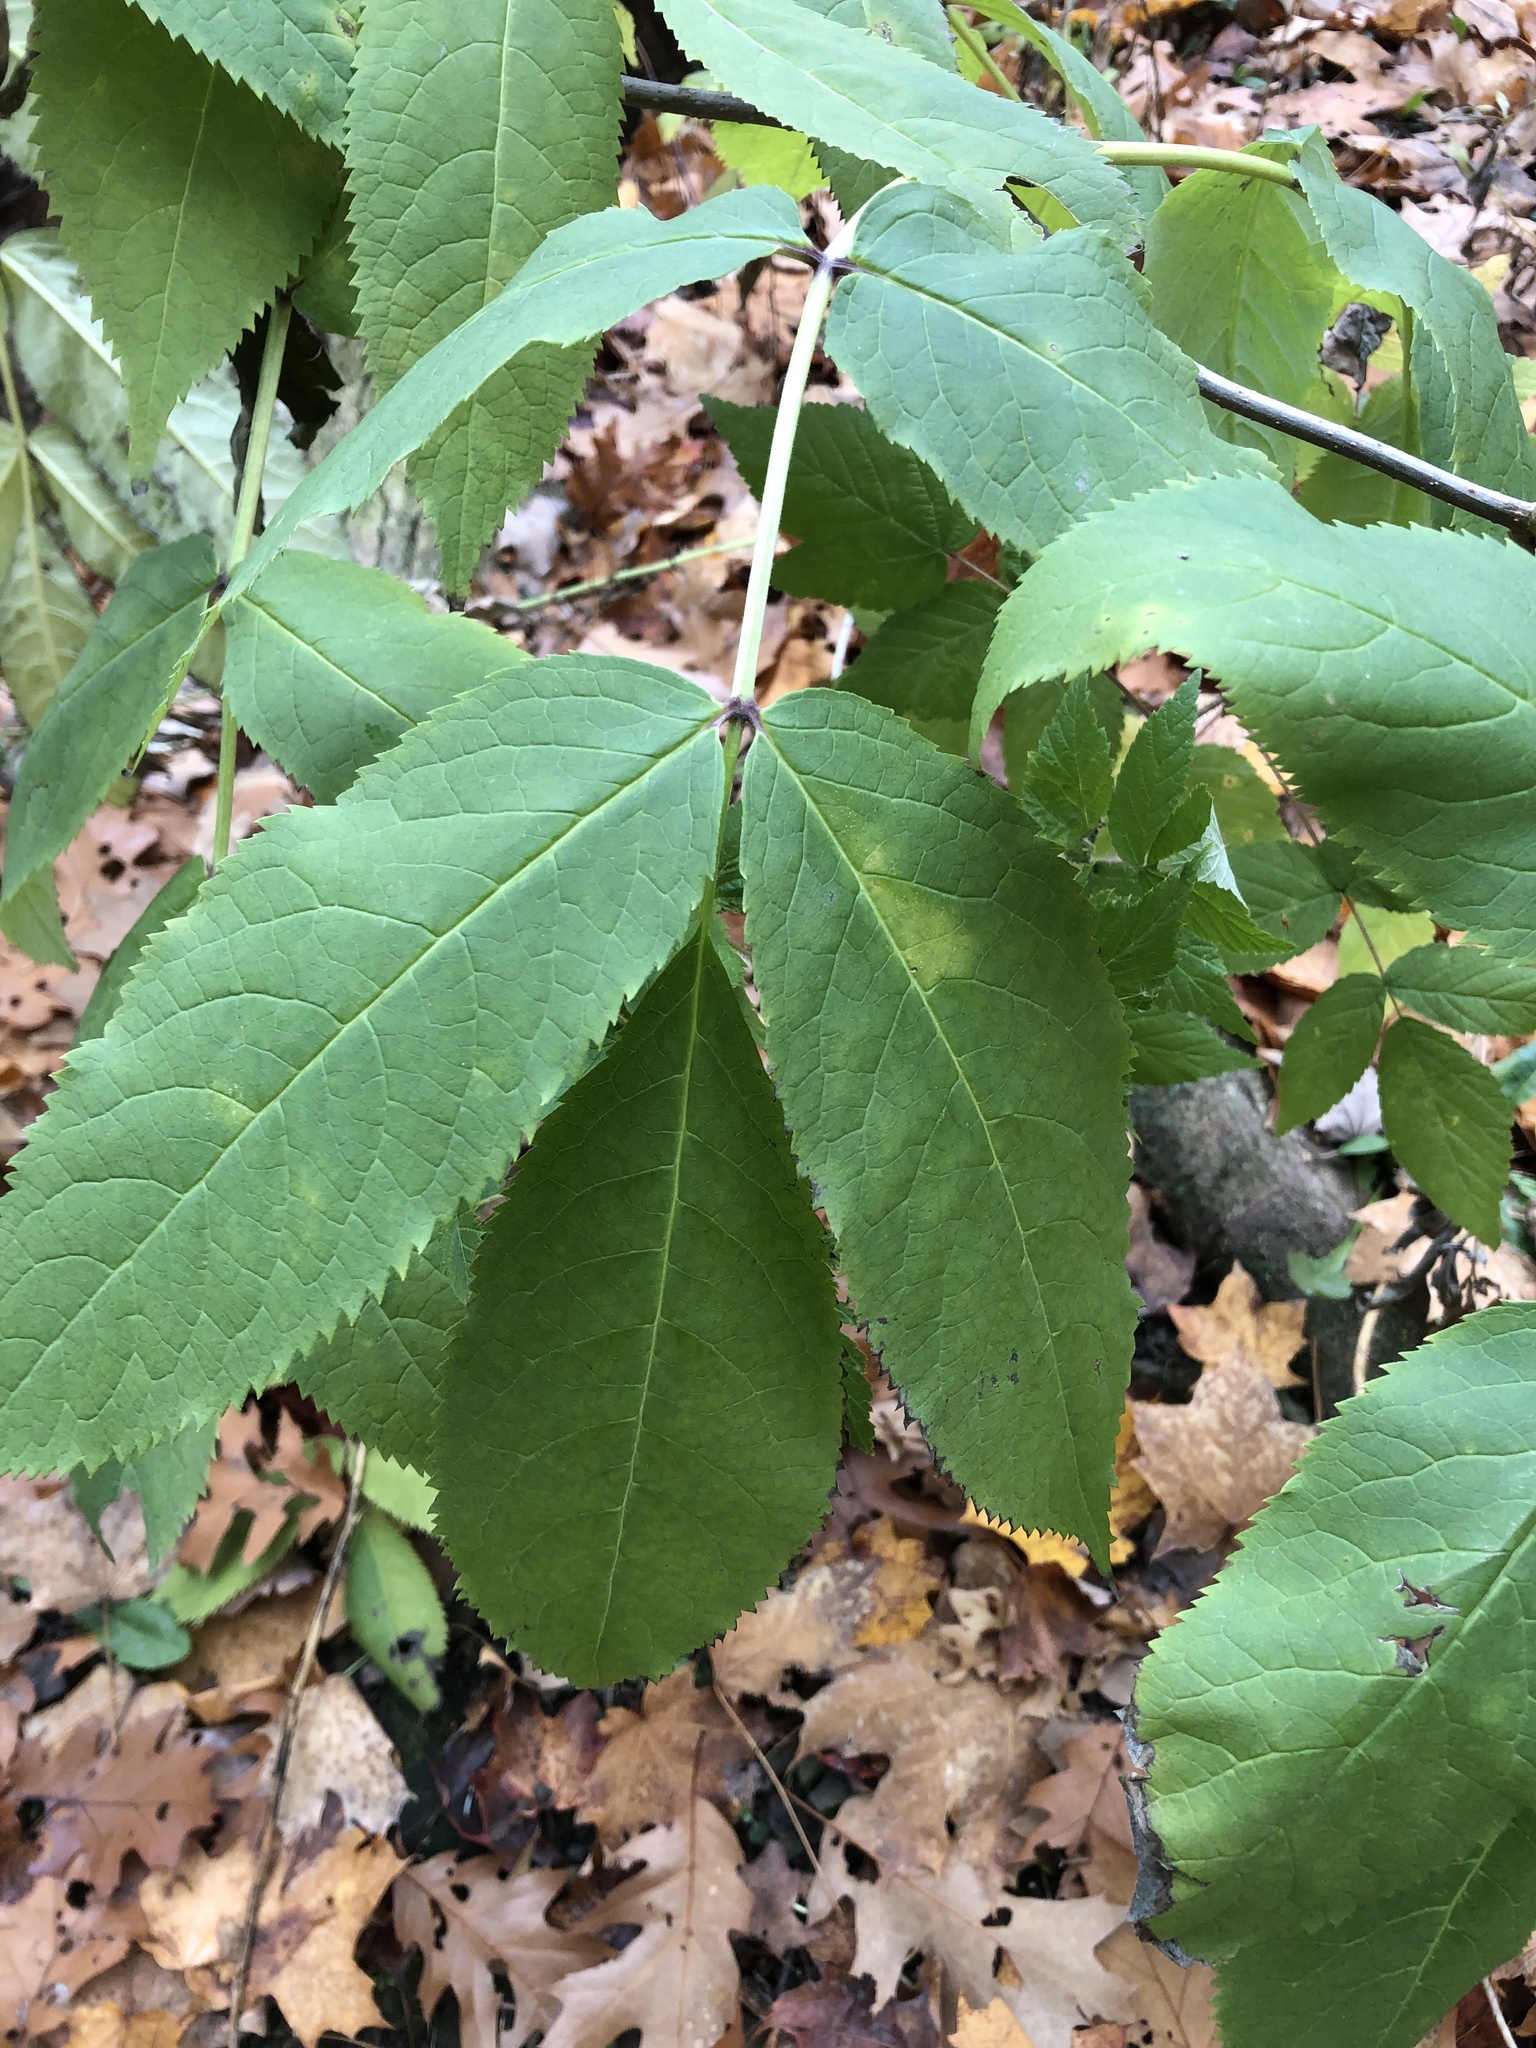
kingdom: Plantae
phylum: Tracheophyta
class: Magnoliopsida
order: Dipsacales
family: Viburnaceae
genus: Sambucus
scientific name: Sambucus racemosa
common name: Red-berried elder
